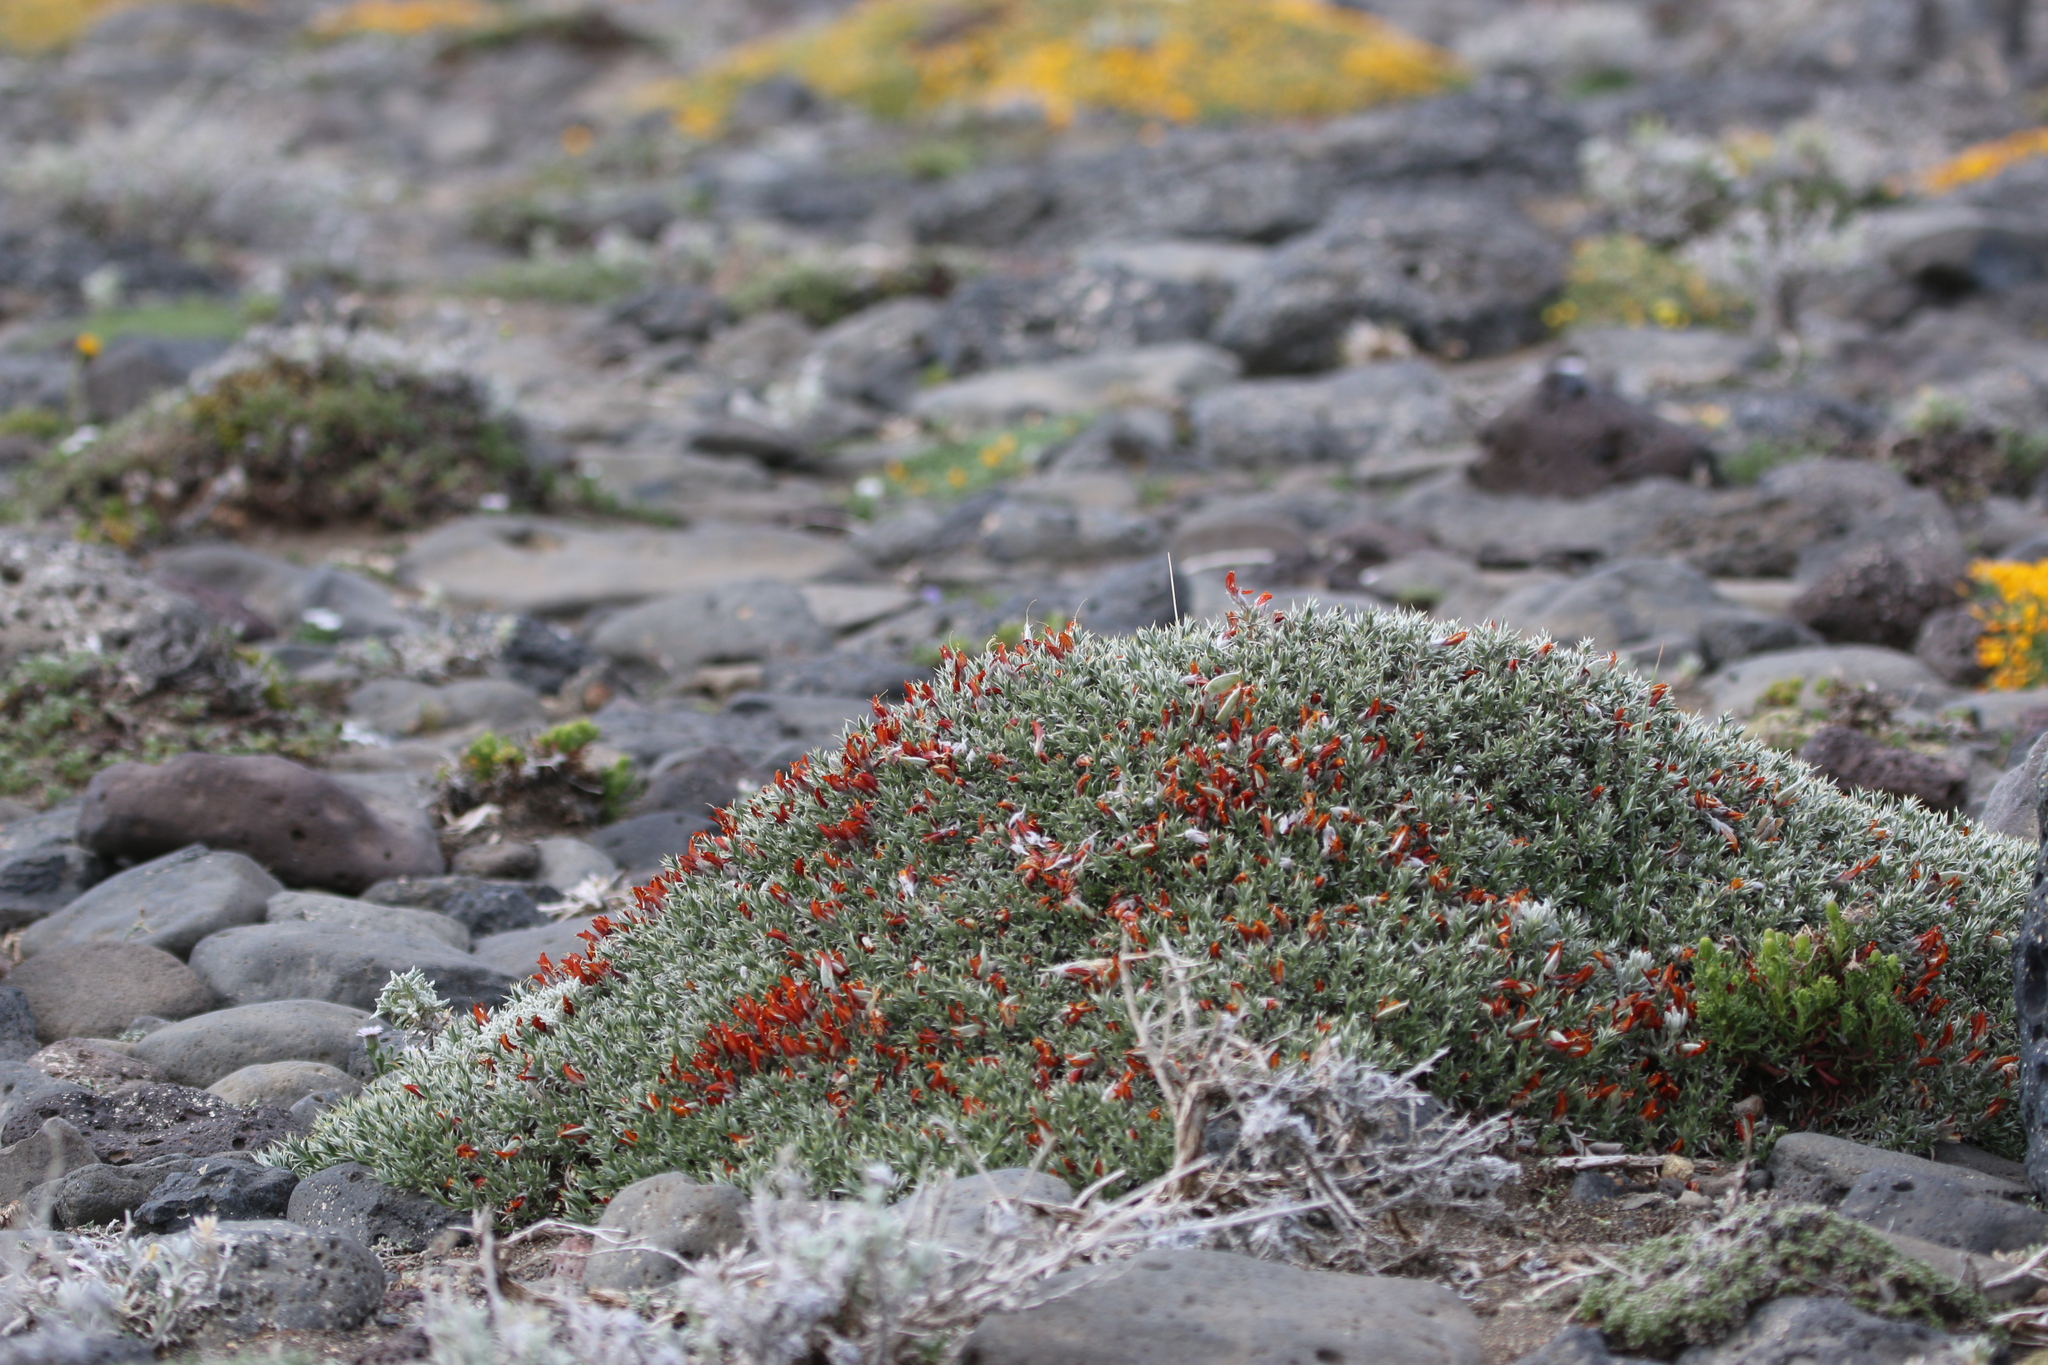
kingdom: Plantae
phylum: Tracheophyta
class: Magnoliopsida
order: Fabales
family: Fabaceae
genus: Anarthrophyllum
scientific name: Anarthrophyllum desideratum
